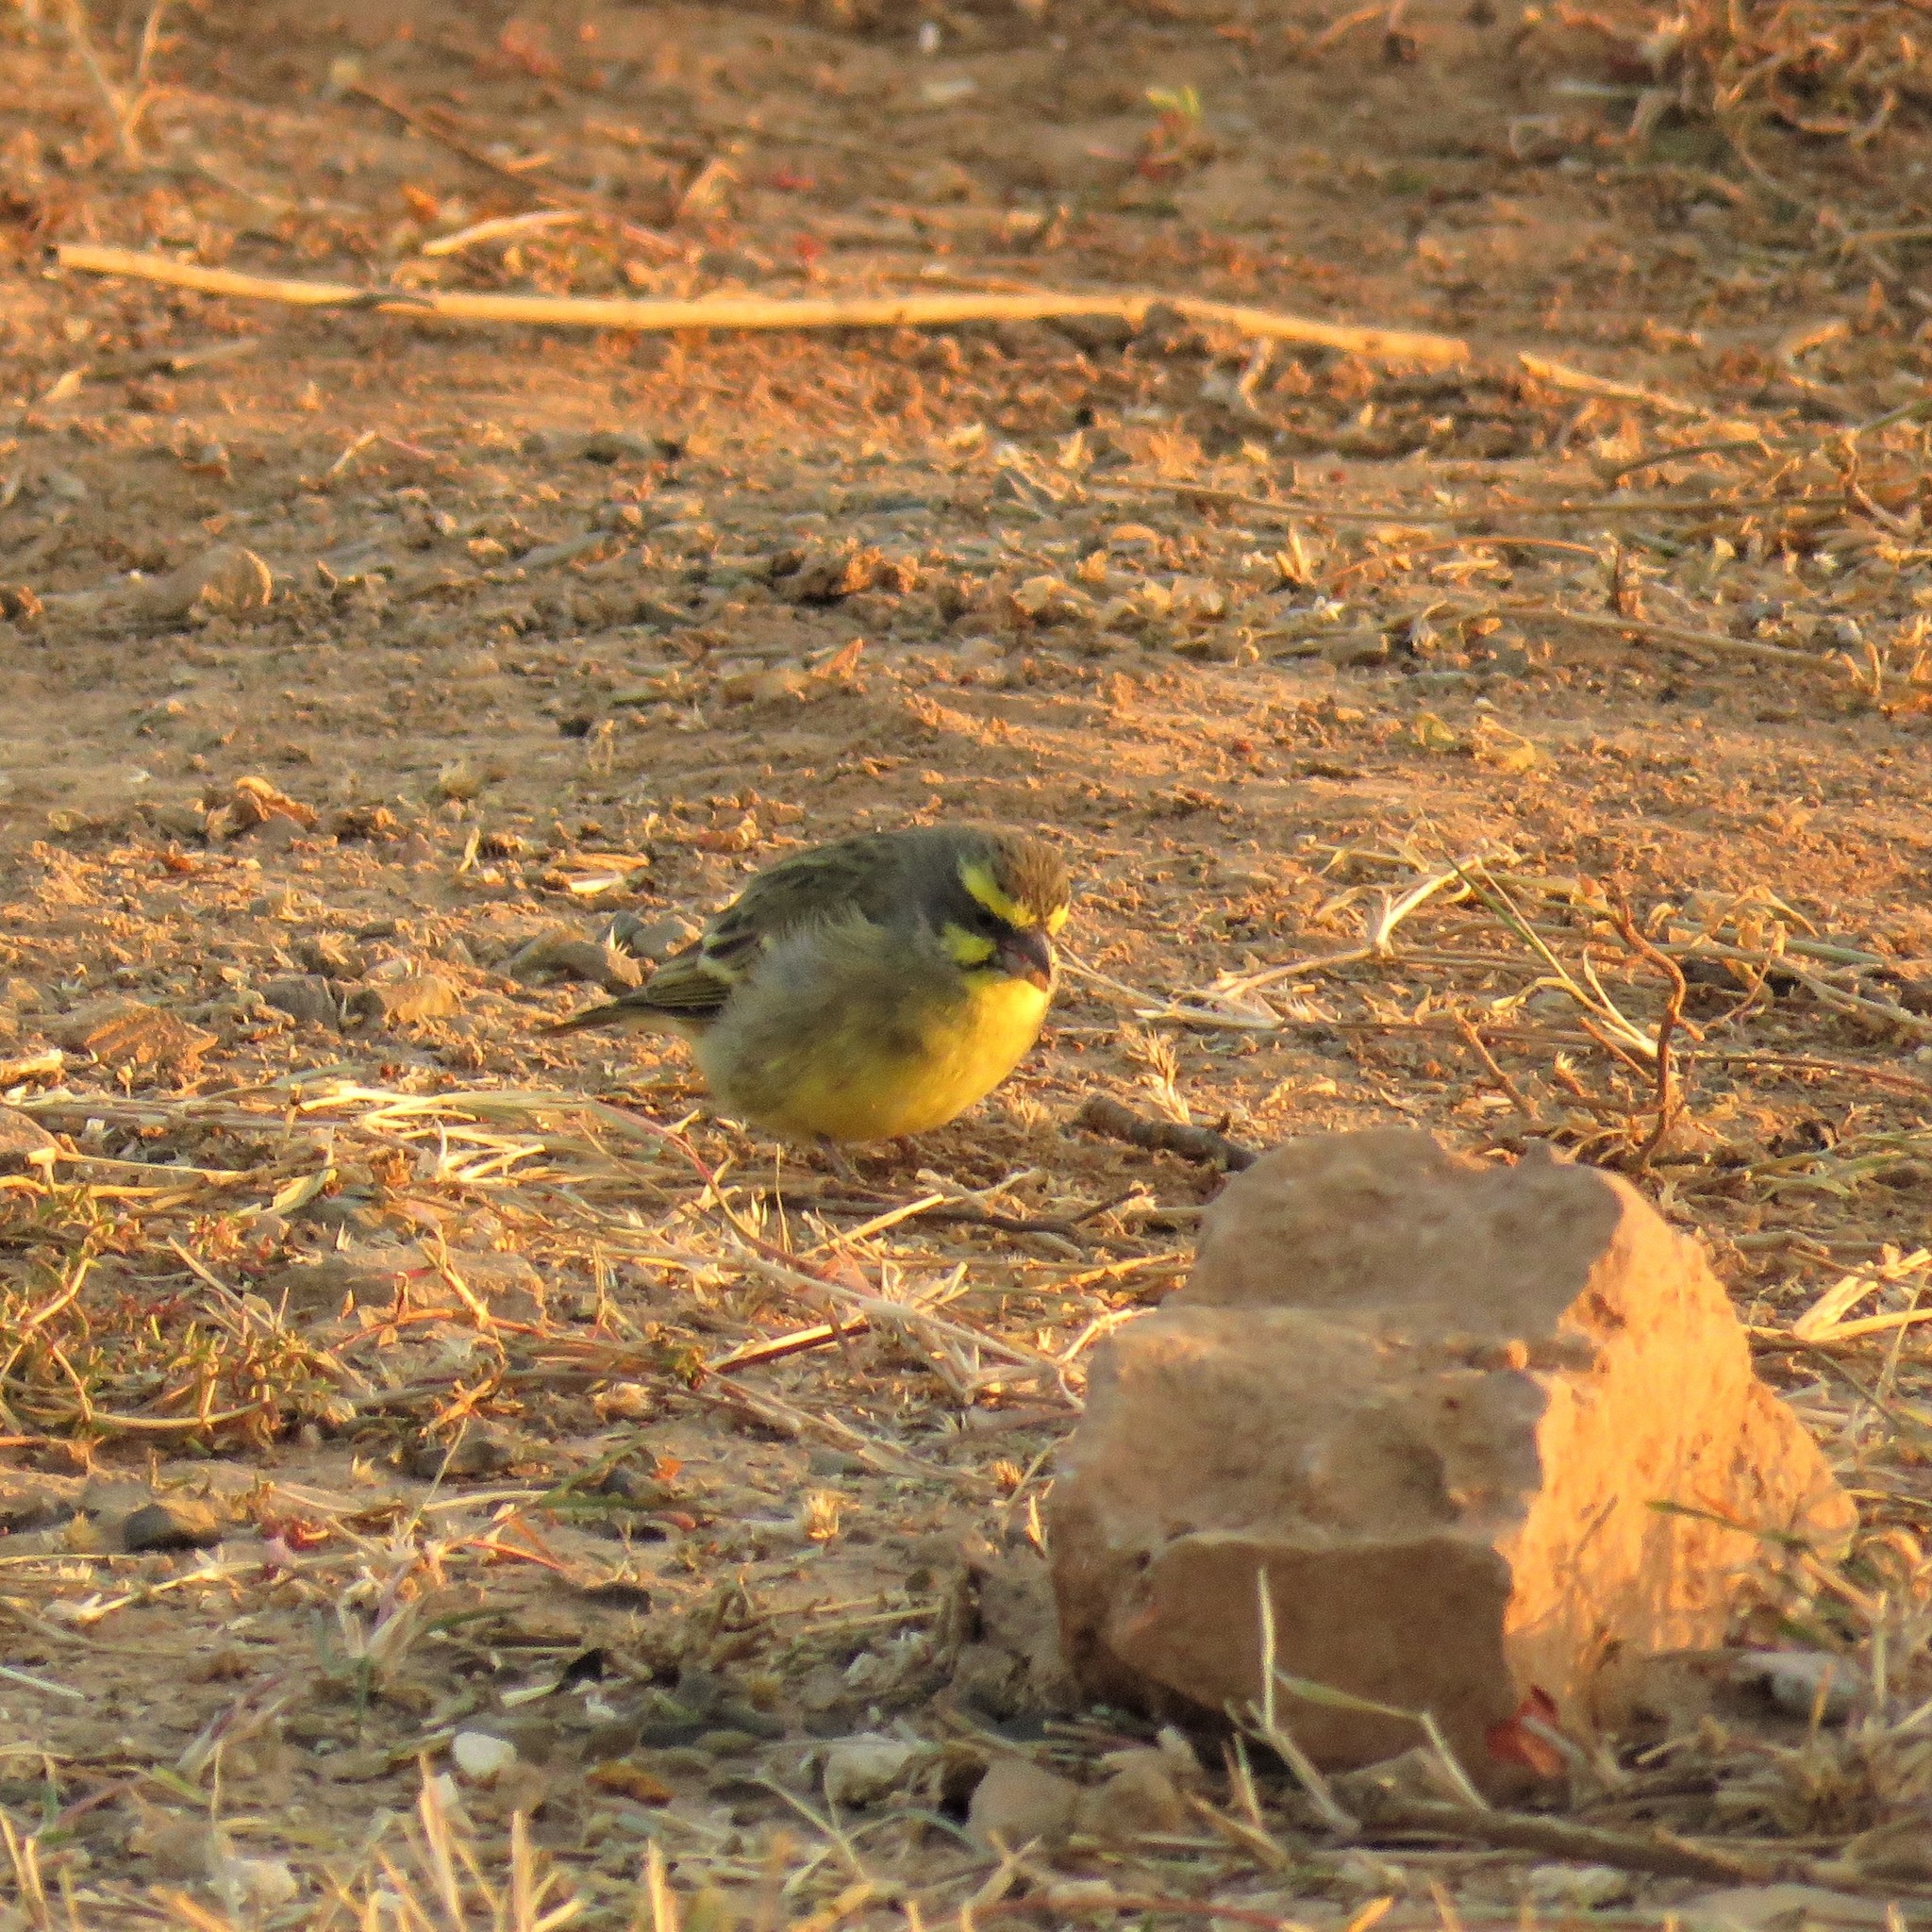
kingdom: Animalia
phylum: Chordata
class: Aves
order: Passeriformes
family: Fringillidae
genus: Crithagra
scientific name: Crithagra mozambica
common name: Yellow-fronted canary
